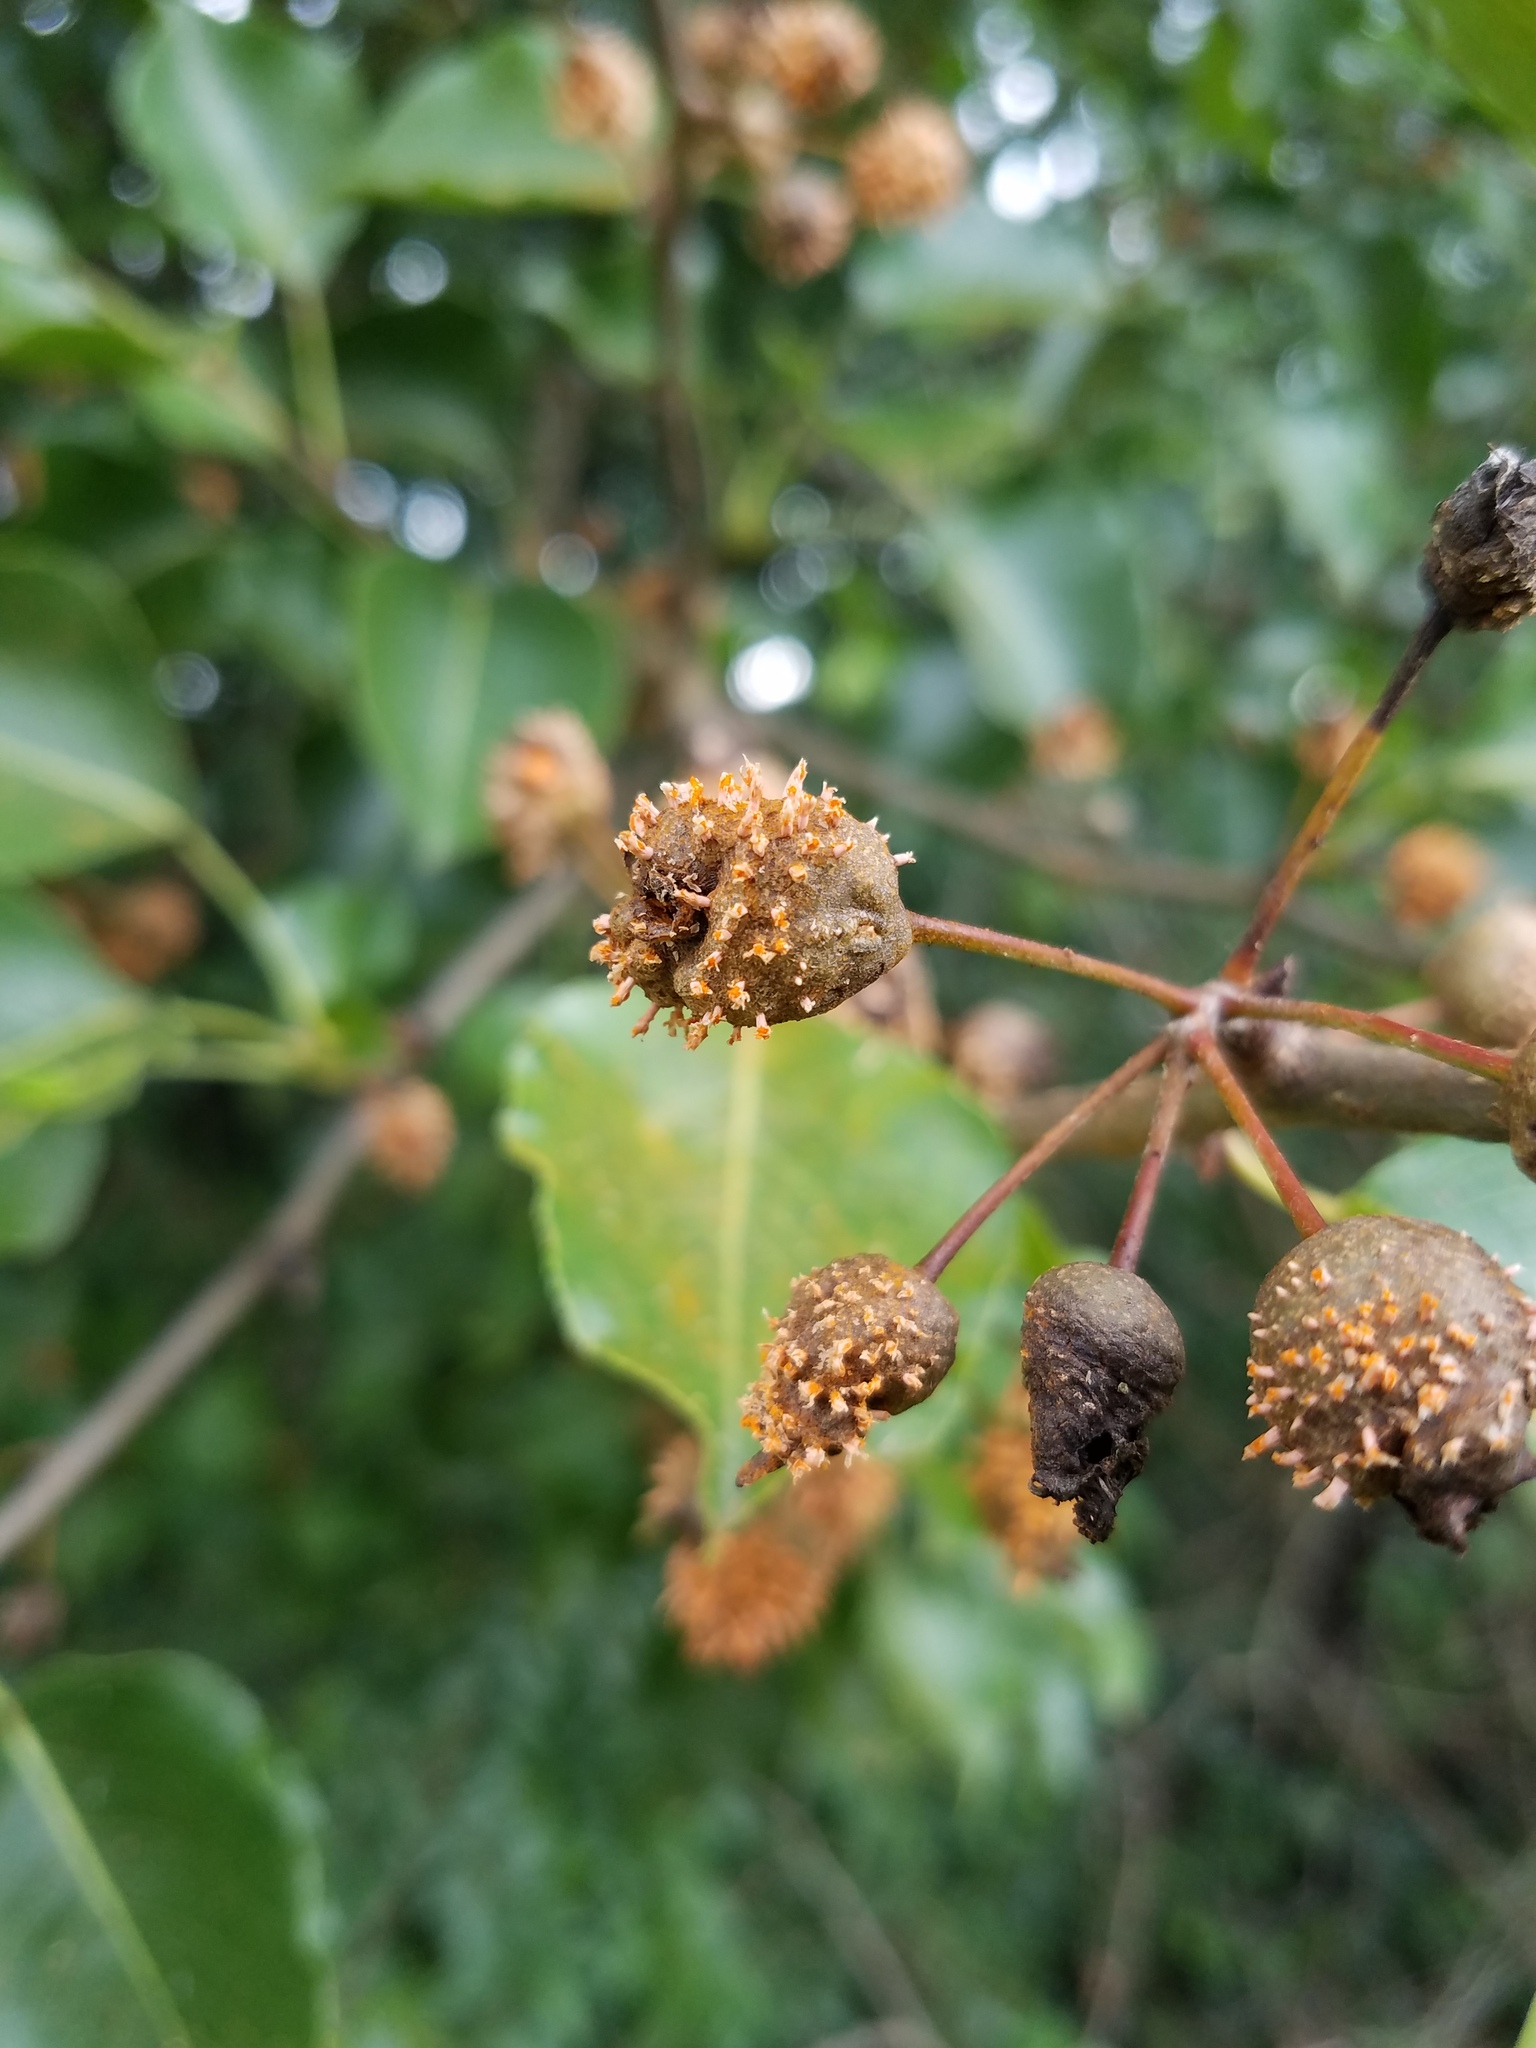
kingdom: Fungi
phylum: Basidiomycota
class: Pucciniomycetes
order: Pucciniales
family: Gymnosporangiaceae
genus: Gymnosporangium
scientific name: Gymnosporangium clavipes
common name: Quince rust
